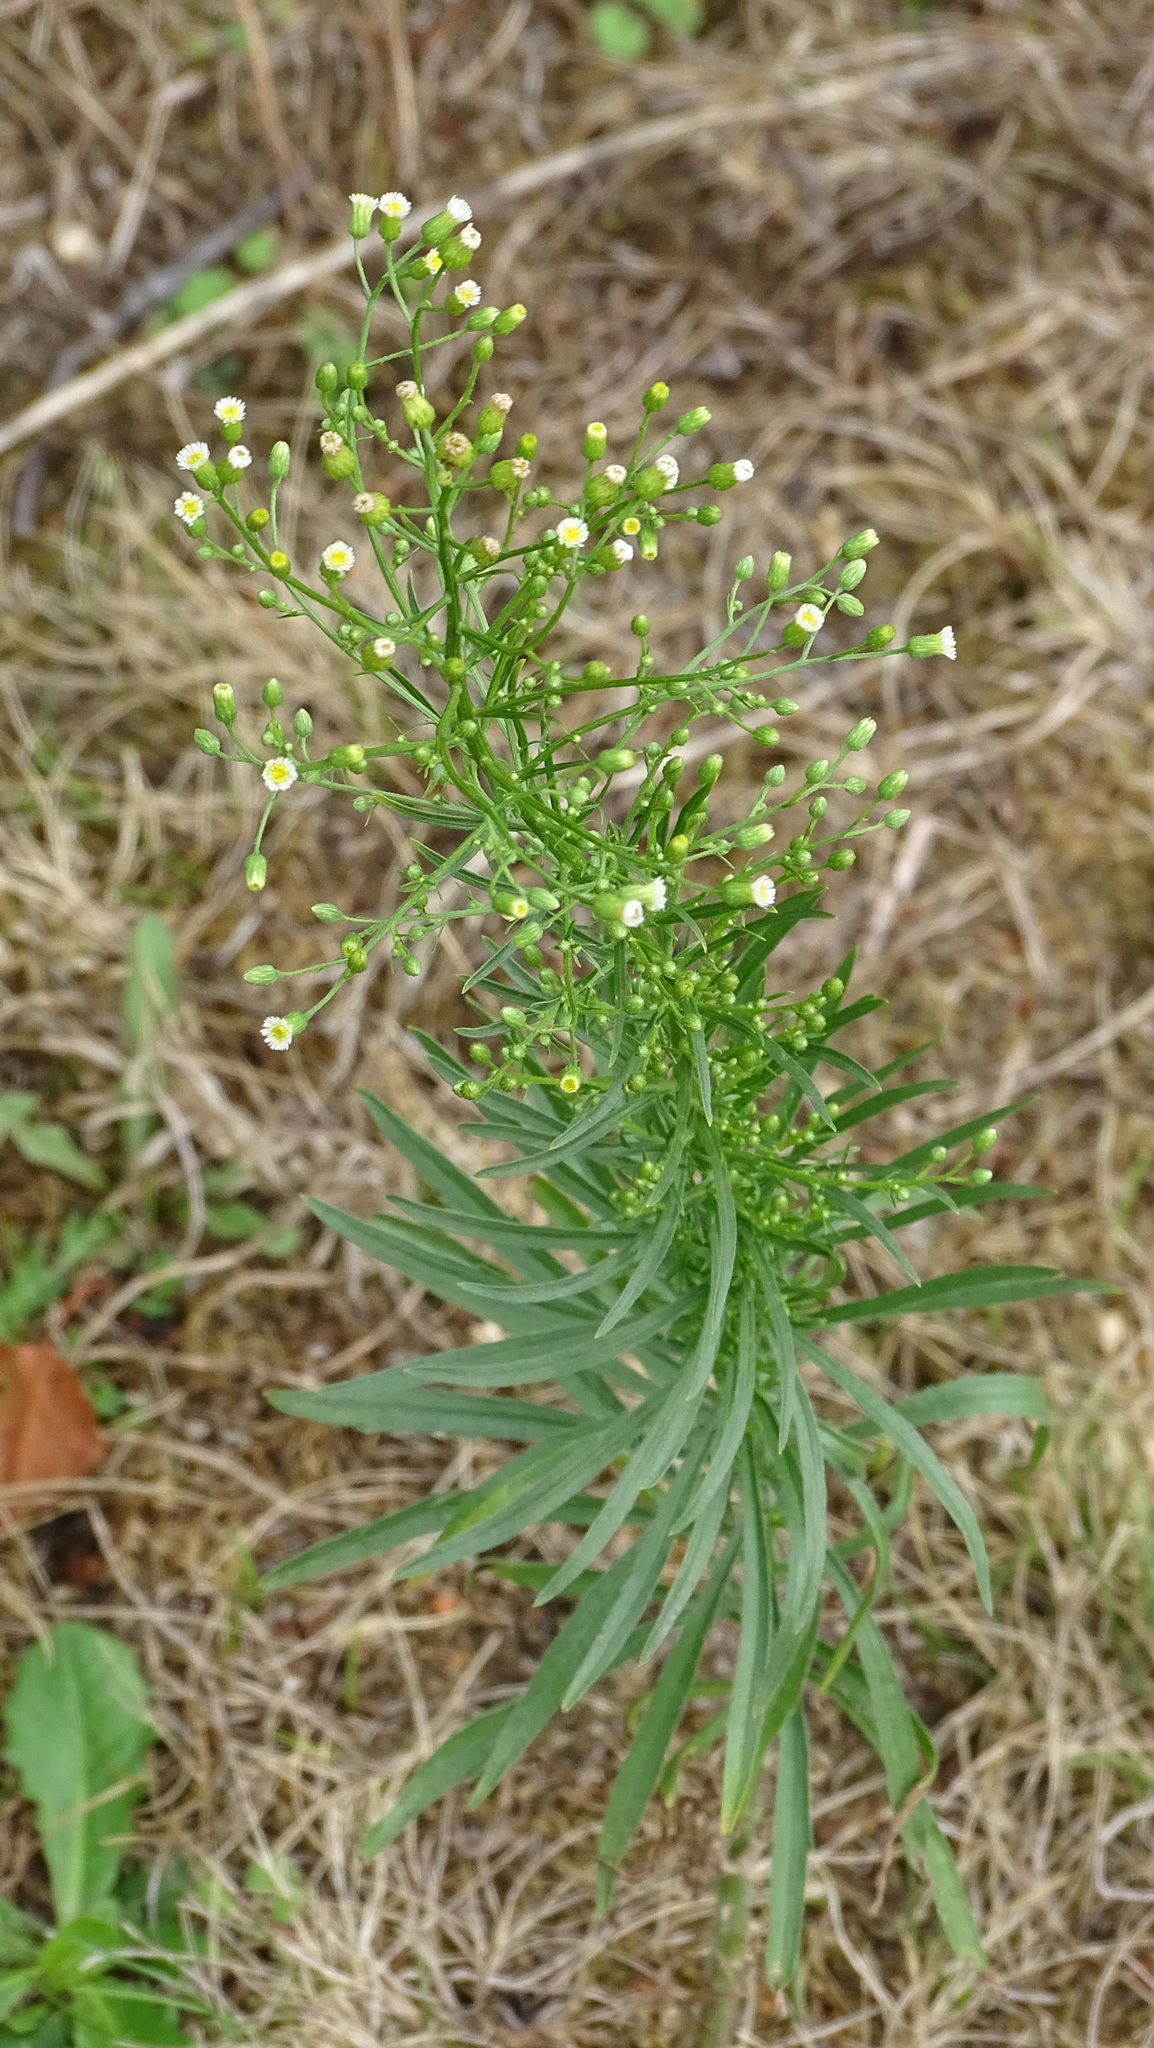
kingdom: Plantae
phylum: Tracheophyta
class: Magnoliopsida
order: Asterales
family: Asteraceae
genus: Erigeron
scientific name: Erigeron canadensis
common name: Canadian fleabane
